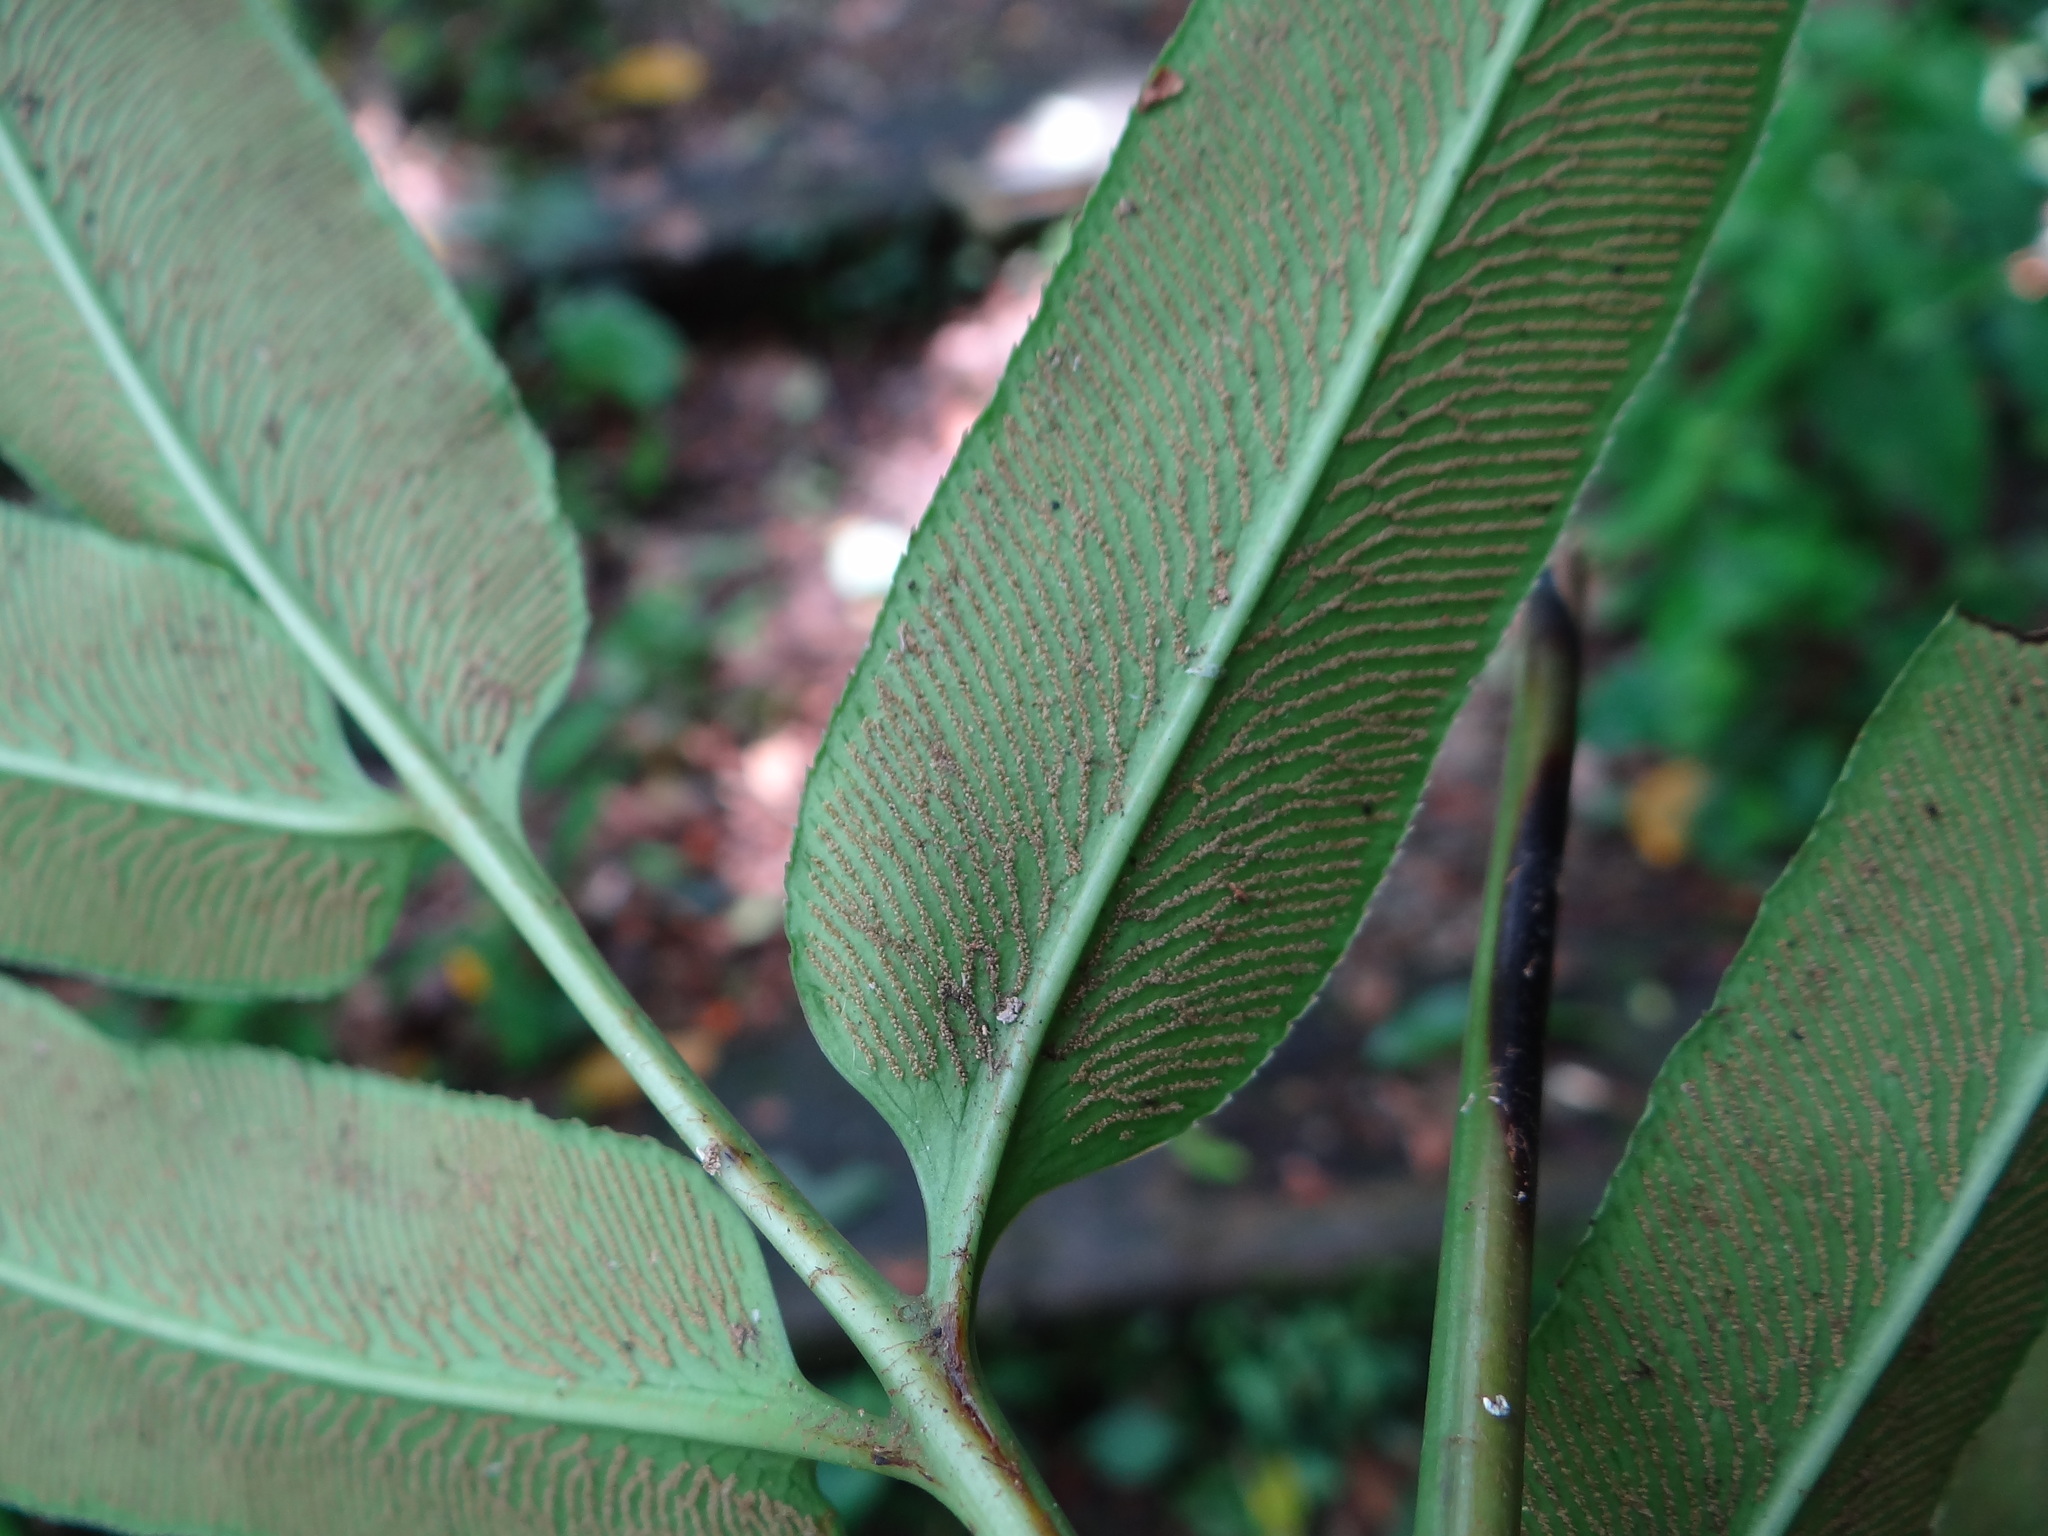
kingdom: Plantae
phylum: Tracheophyta
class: Polypodiopsida
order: Polypodiales
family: Pteridaceae
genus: Coniogramme
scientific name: Coniogramme japonica
